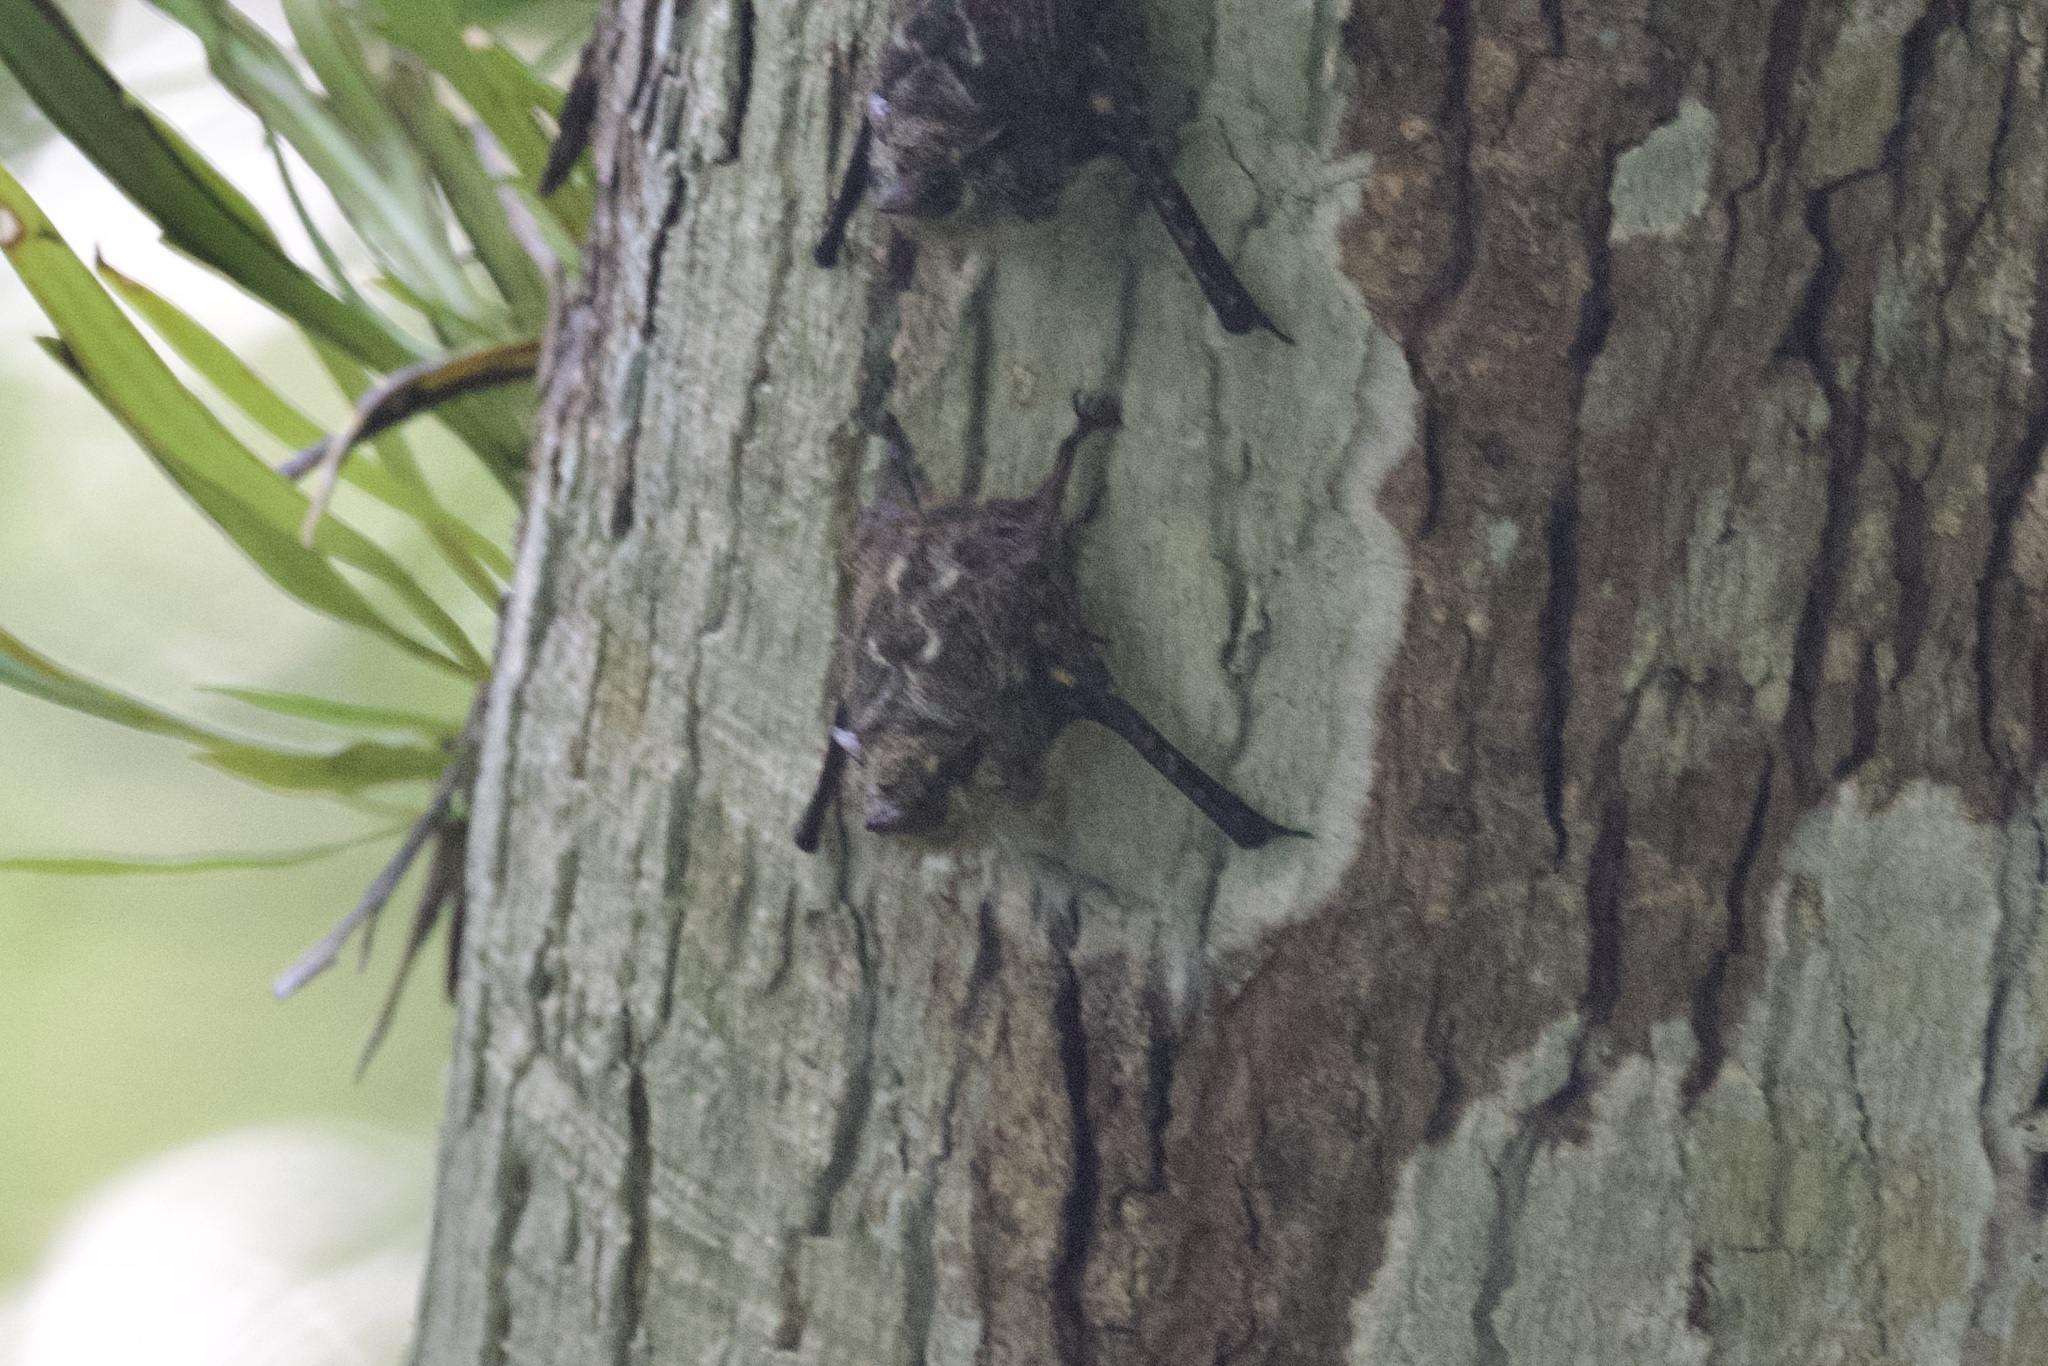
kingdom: Animalia
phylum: Chordata
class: Mammalia
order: Chiroptera
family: Emballonuridae
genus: Rhynchonycteris
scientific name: Rhynchonycteris naso
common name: Proboscis bat
